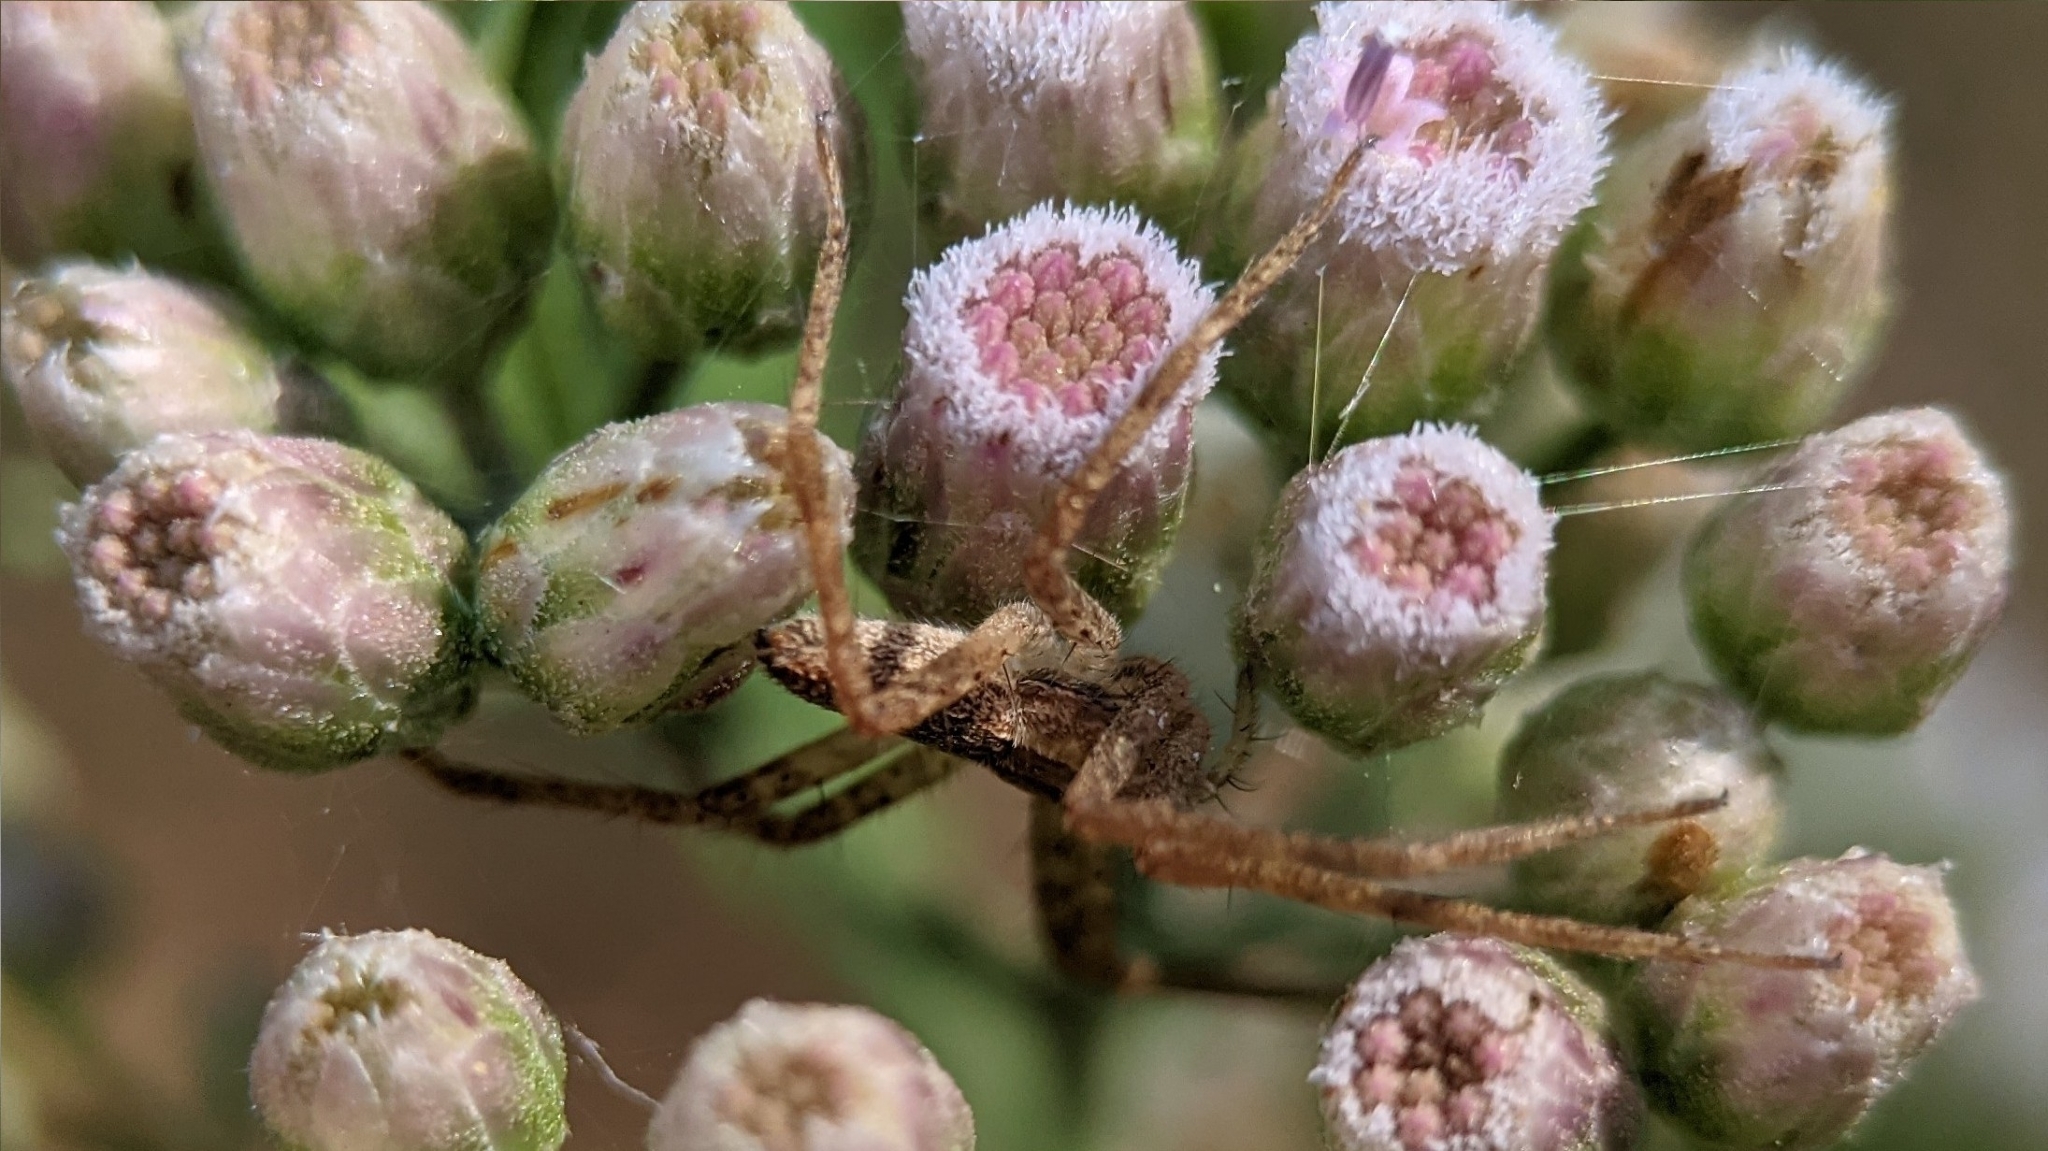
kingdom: Animalia
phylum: Arthropoda
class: Arachnida
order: Araneae
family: Pisauridae
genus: Pisaurina
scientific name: Pisaurina mira
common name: American nursery web spider
